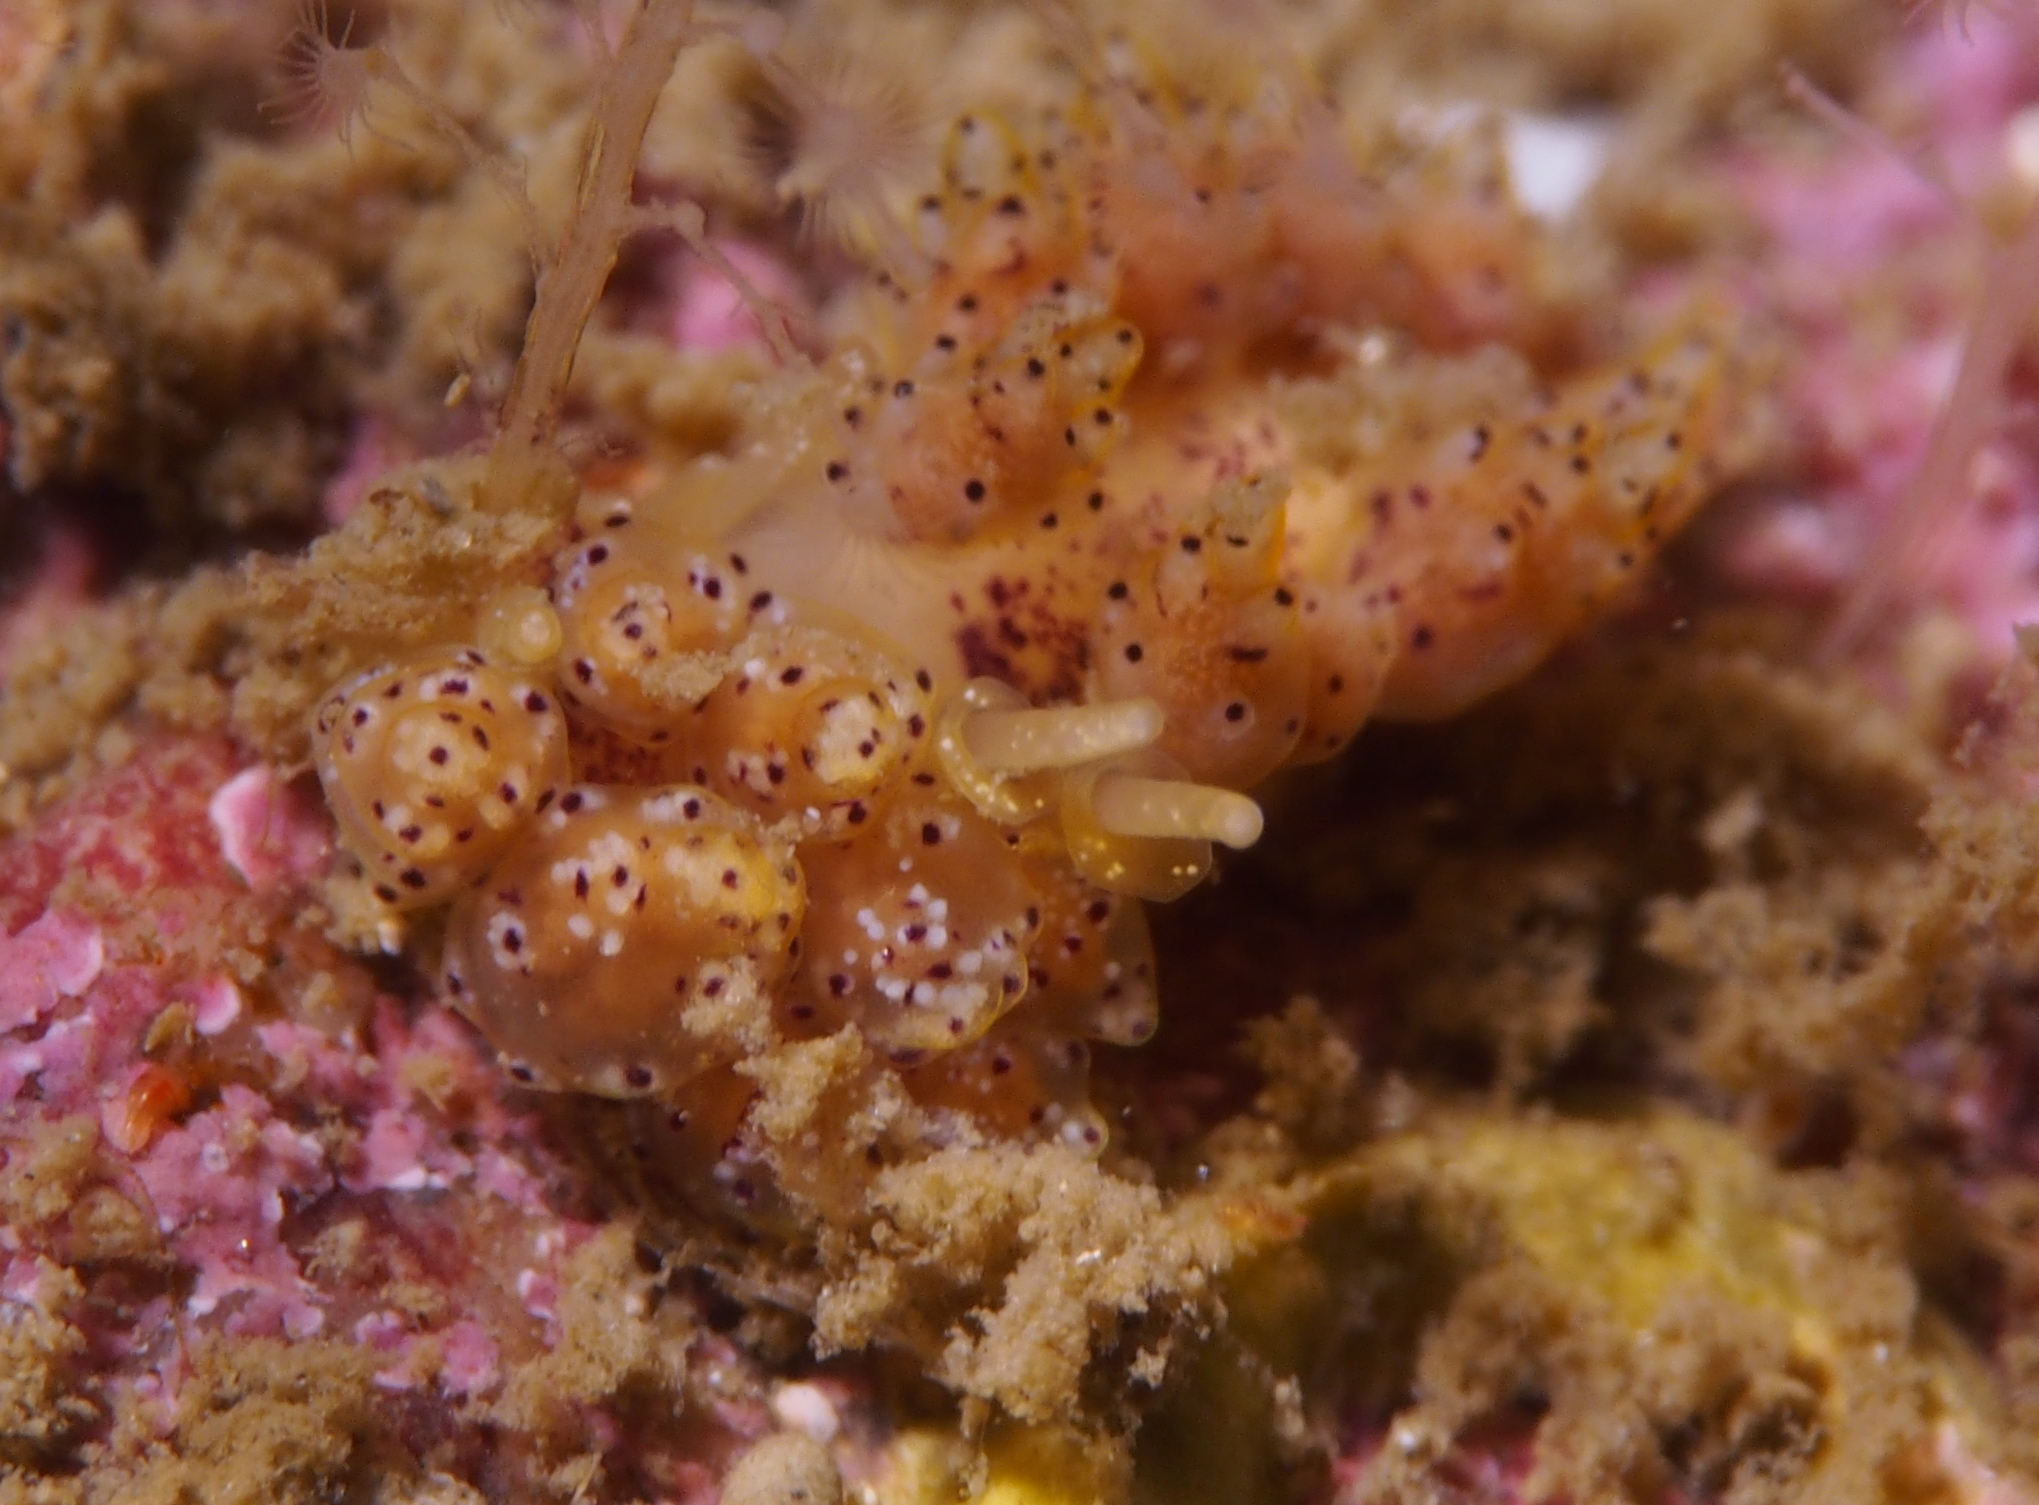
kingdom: Animalia
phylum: Mollusca
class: Gastropoda
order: Nudibranchia
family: Dotidae
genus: Doto
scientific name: Doto dunnei
